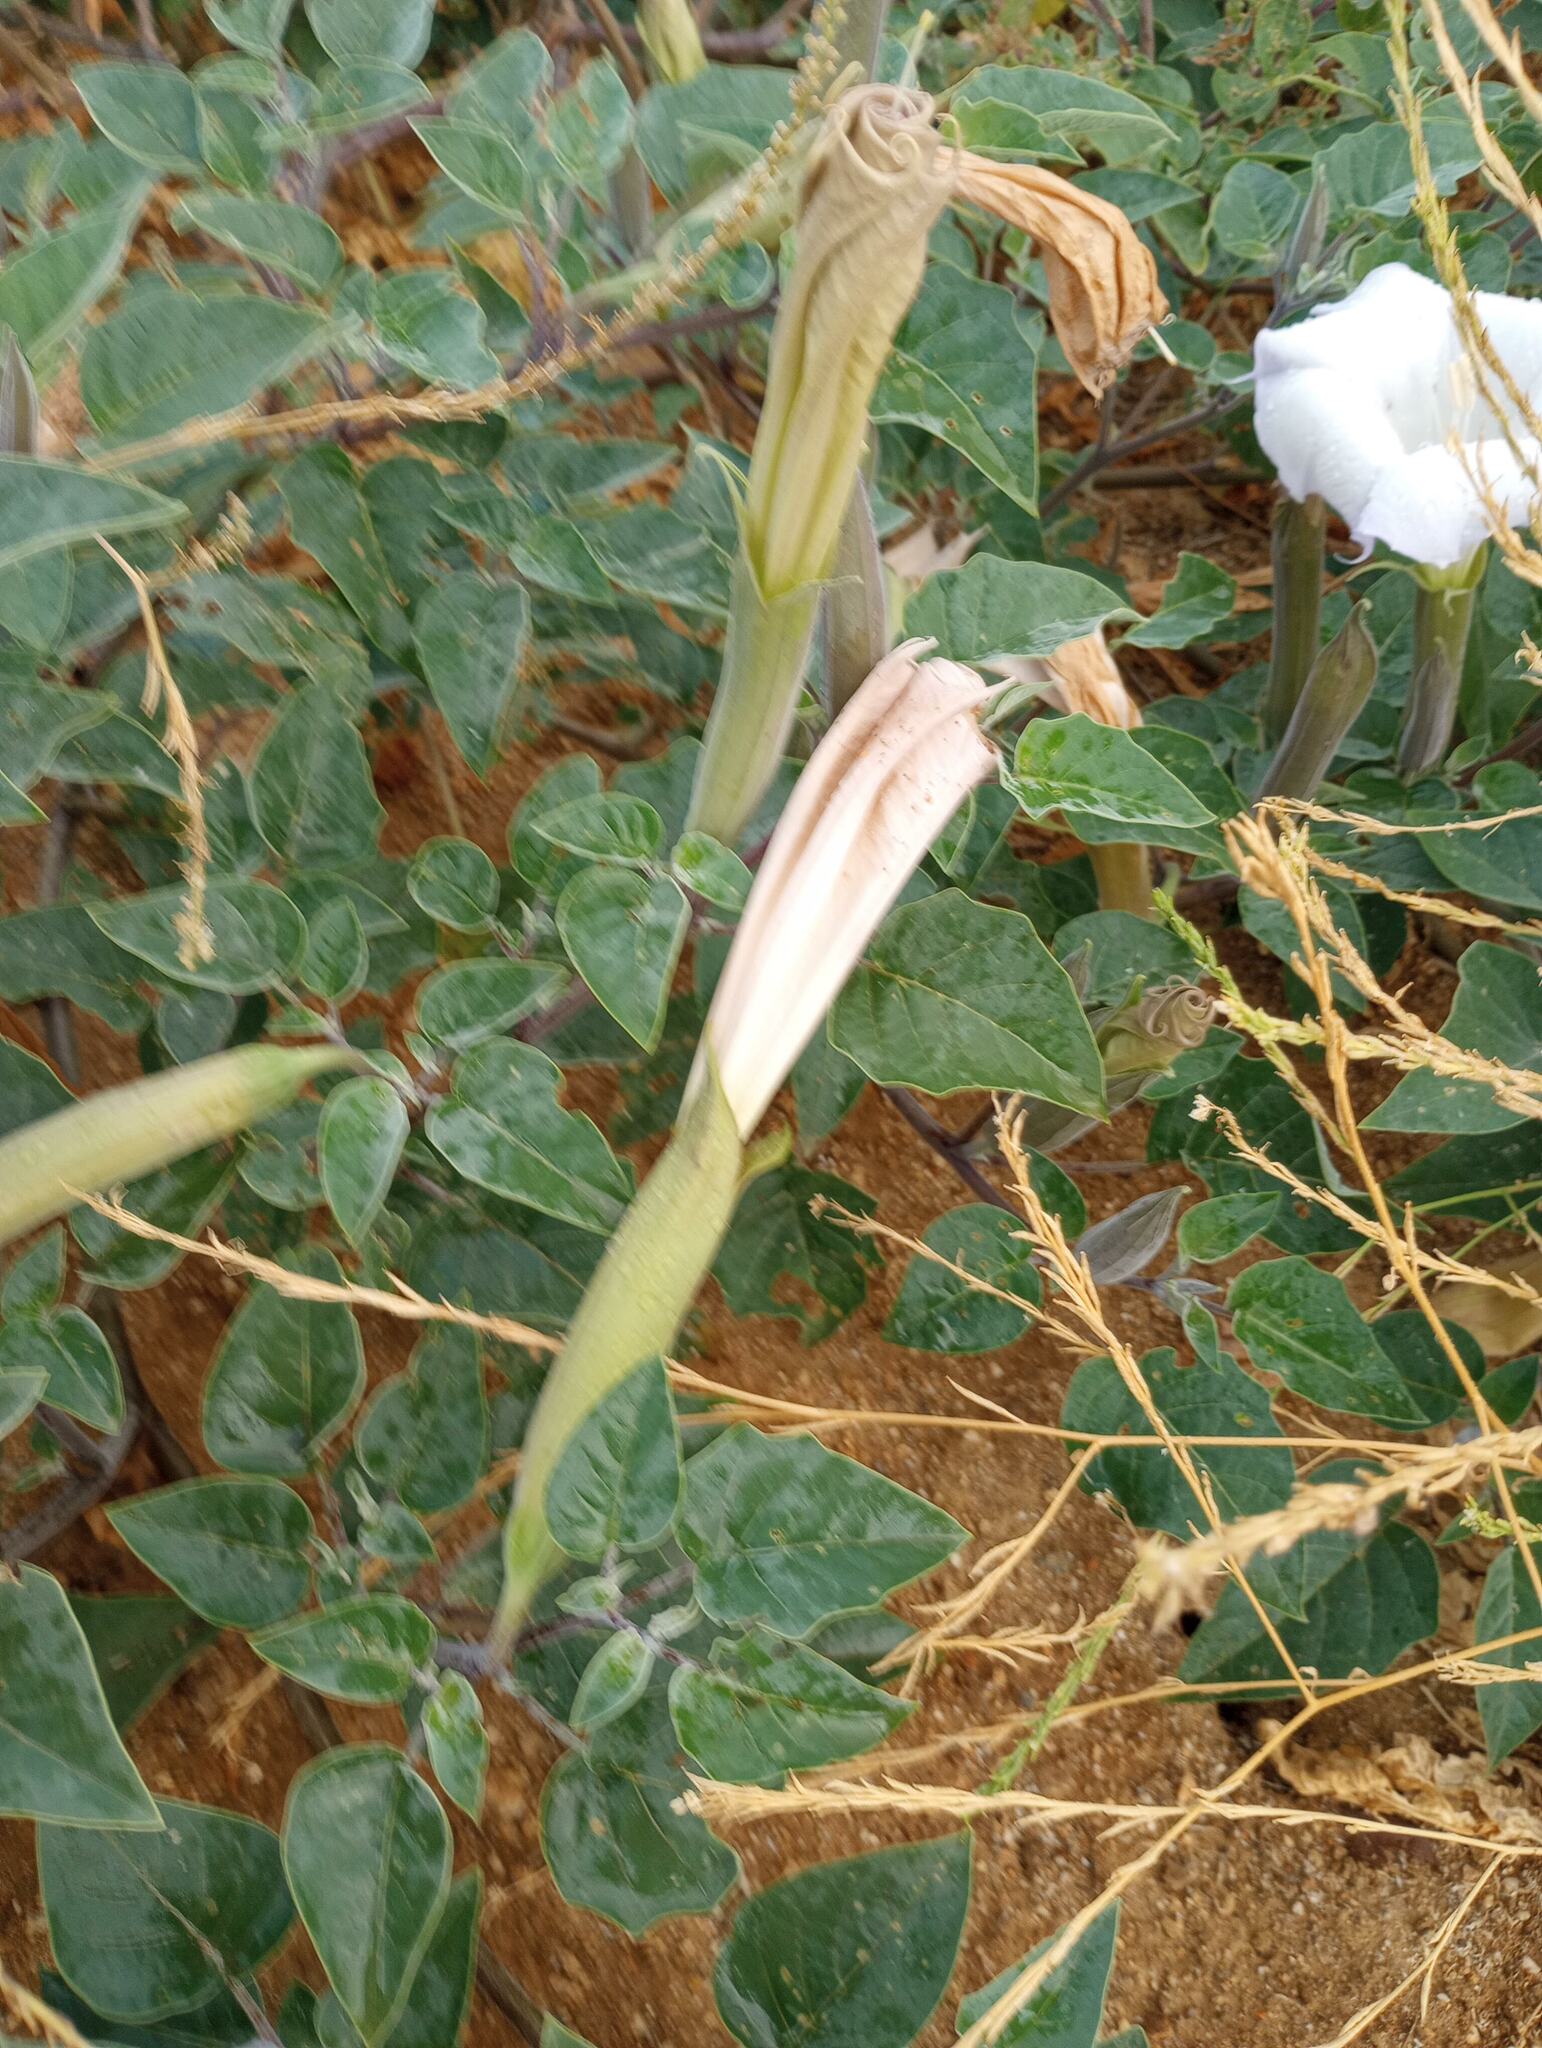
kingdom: Plantae
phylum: Tracheophyta
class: Magnoliopsida
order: Solanales
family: Solanaceae
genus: Datura
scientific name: Datura wrightii
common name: Sacred thorn-apple
